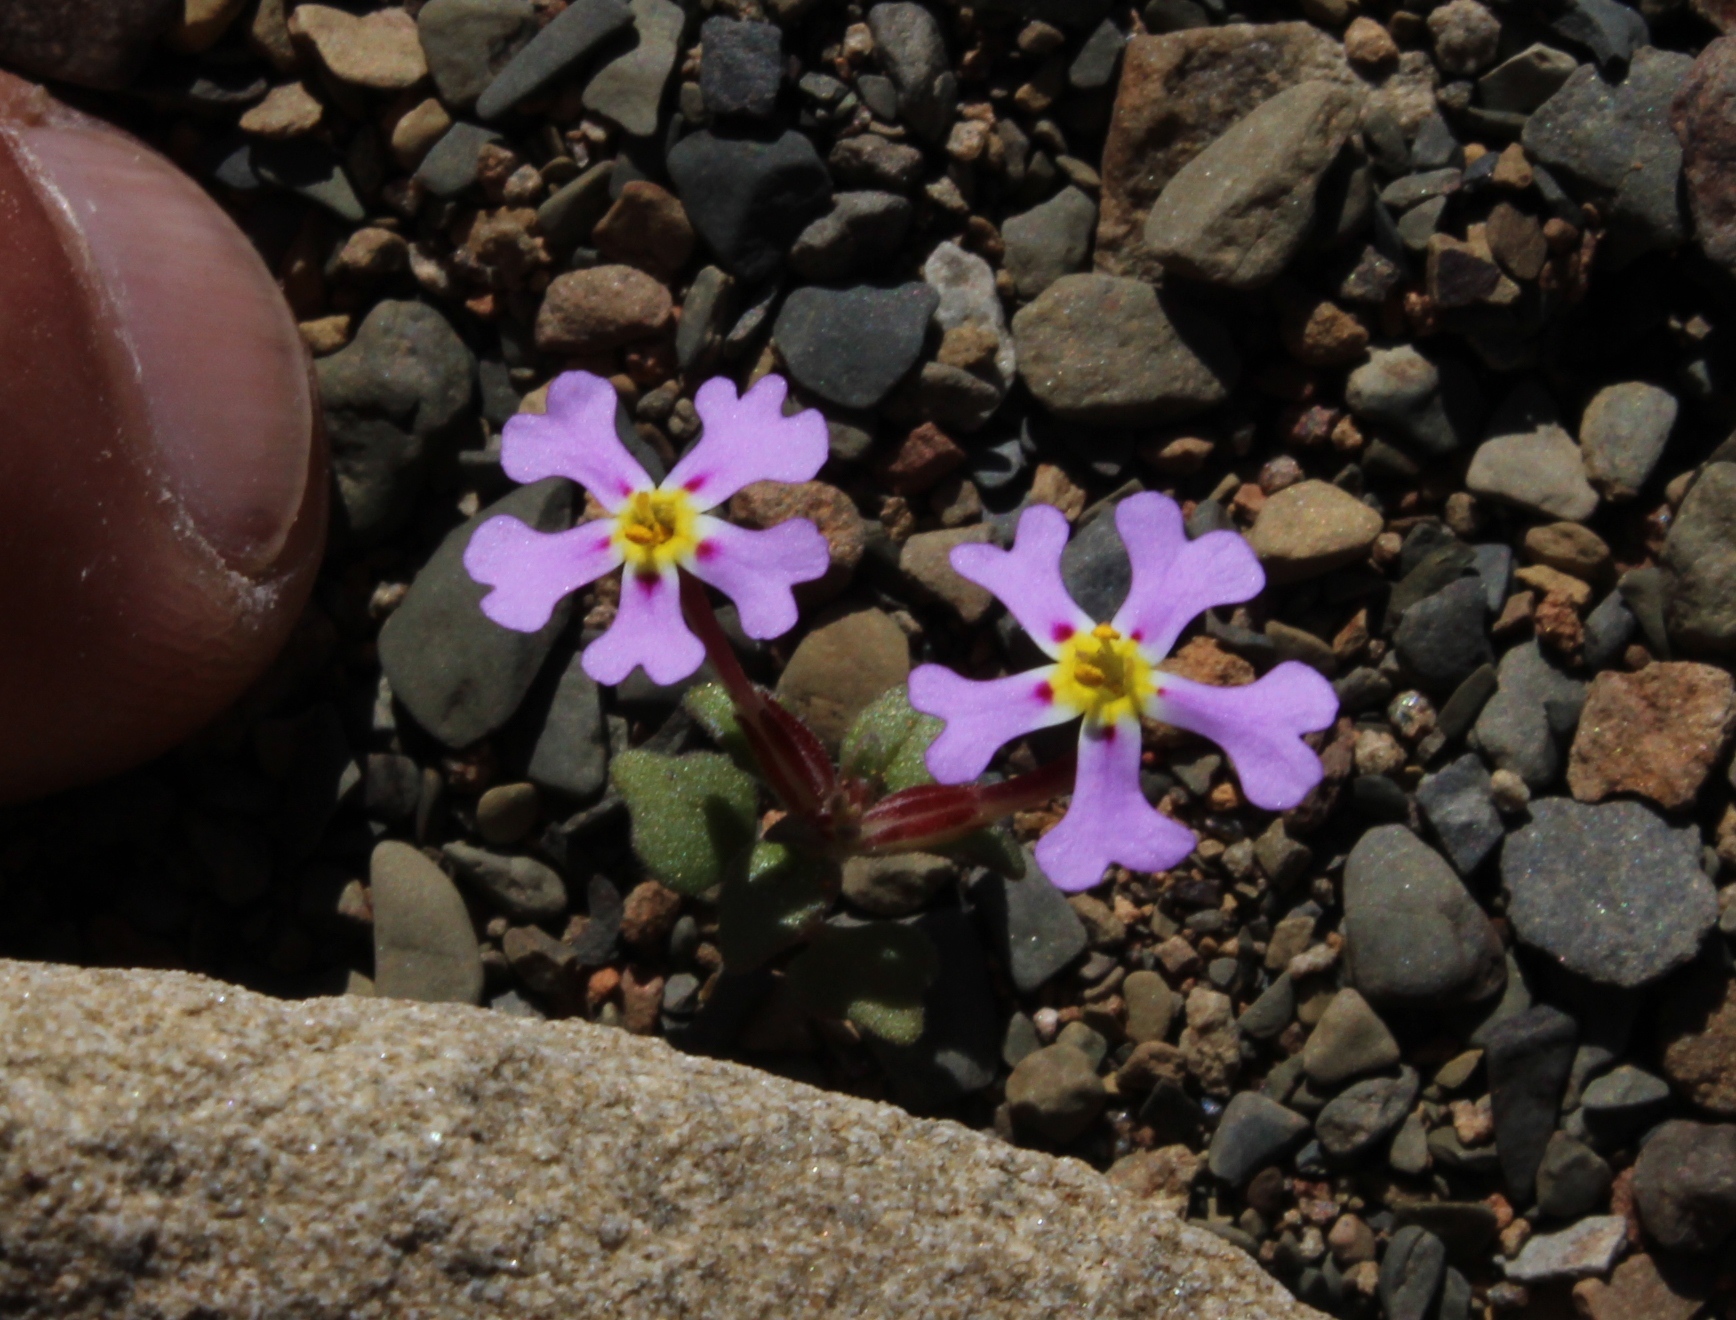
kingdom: Plantae
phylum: Tracheophyta
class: Magnoliopsida
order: Lamiales
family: Scrophulariaceae
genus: Zaluzianskya
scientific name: Zaluzianskya violacea
